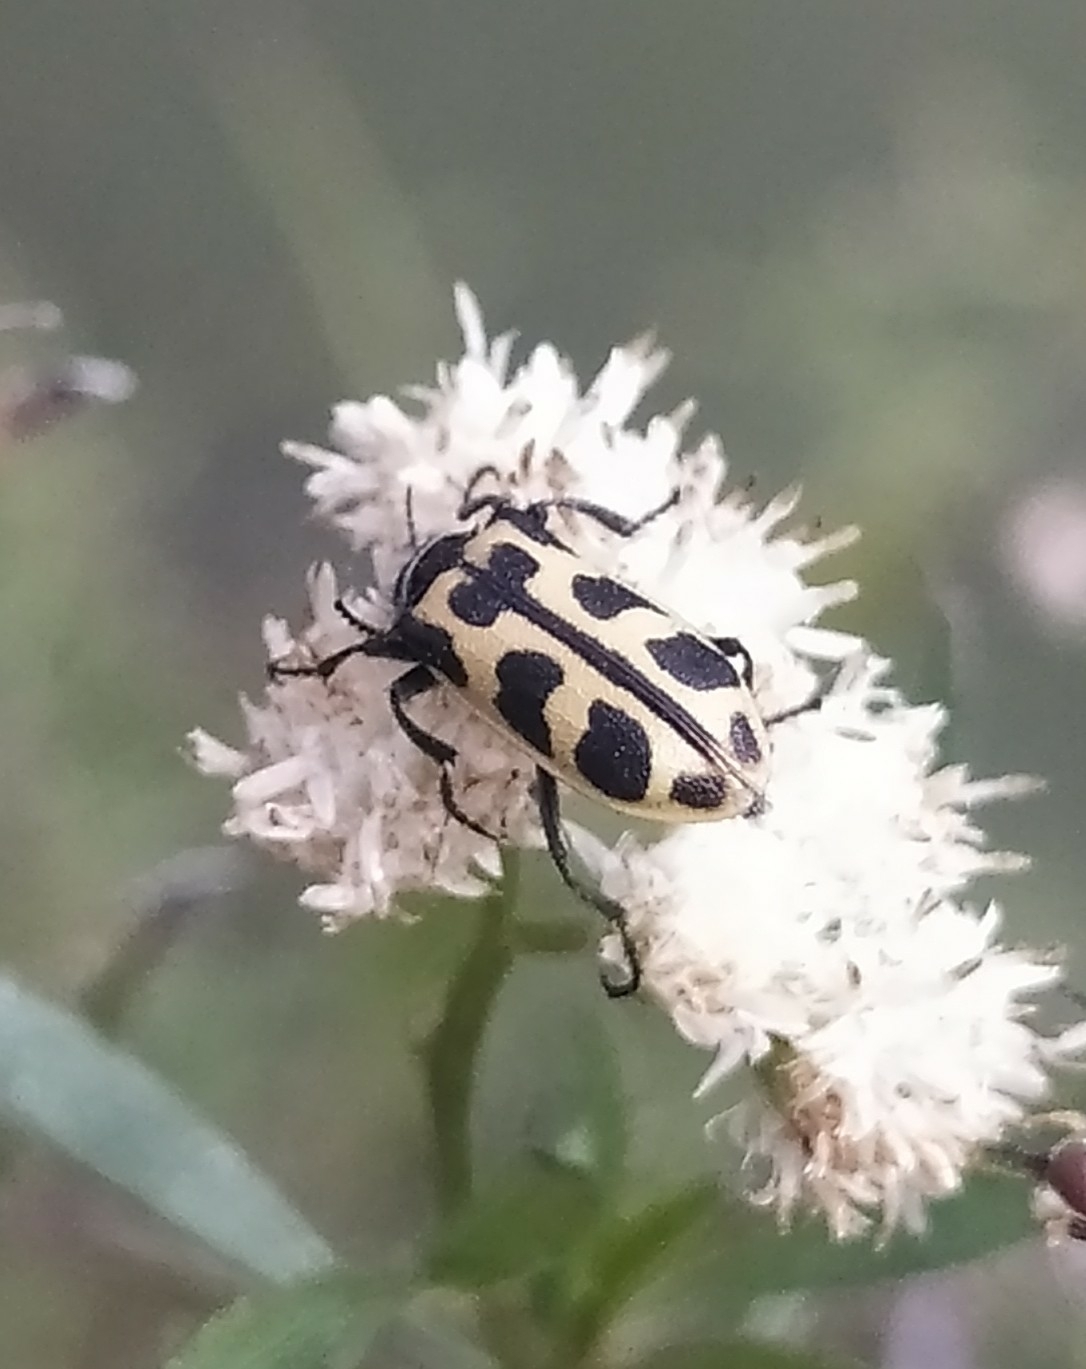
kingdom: Animalia
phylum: Arthropoda
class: Insecta
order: Coleoptera
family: Melyridae
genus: Astylus
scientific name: Astylus atromaculatus
